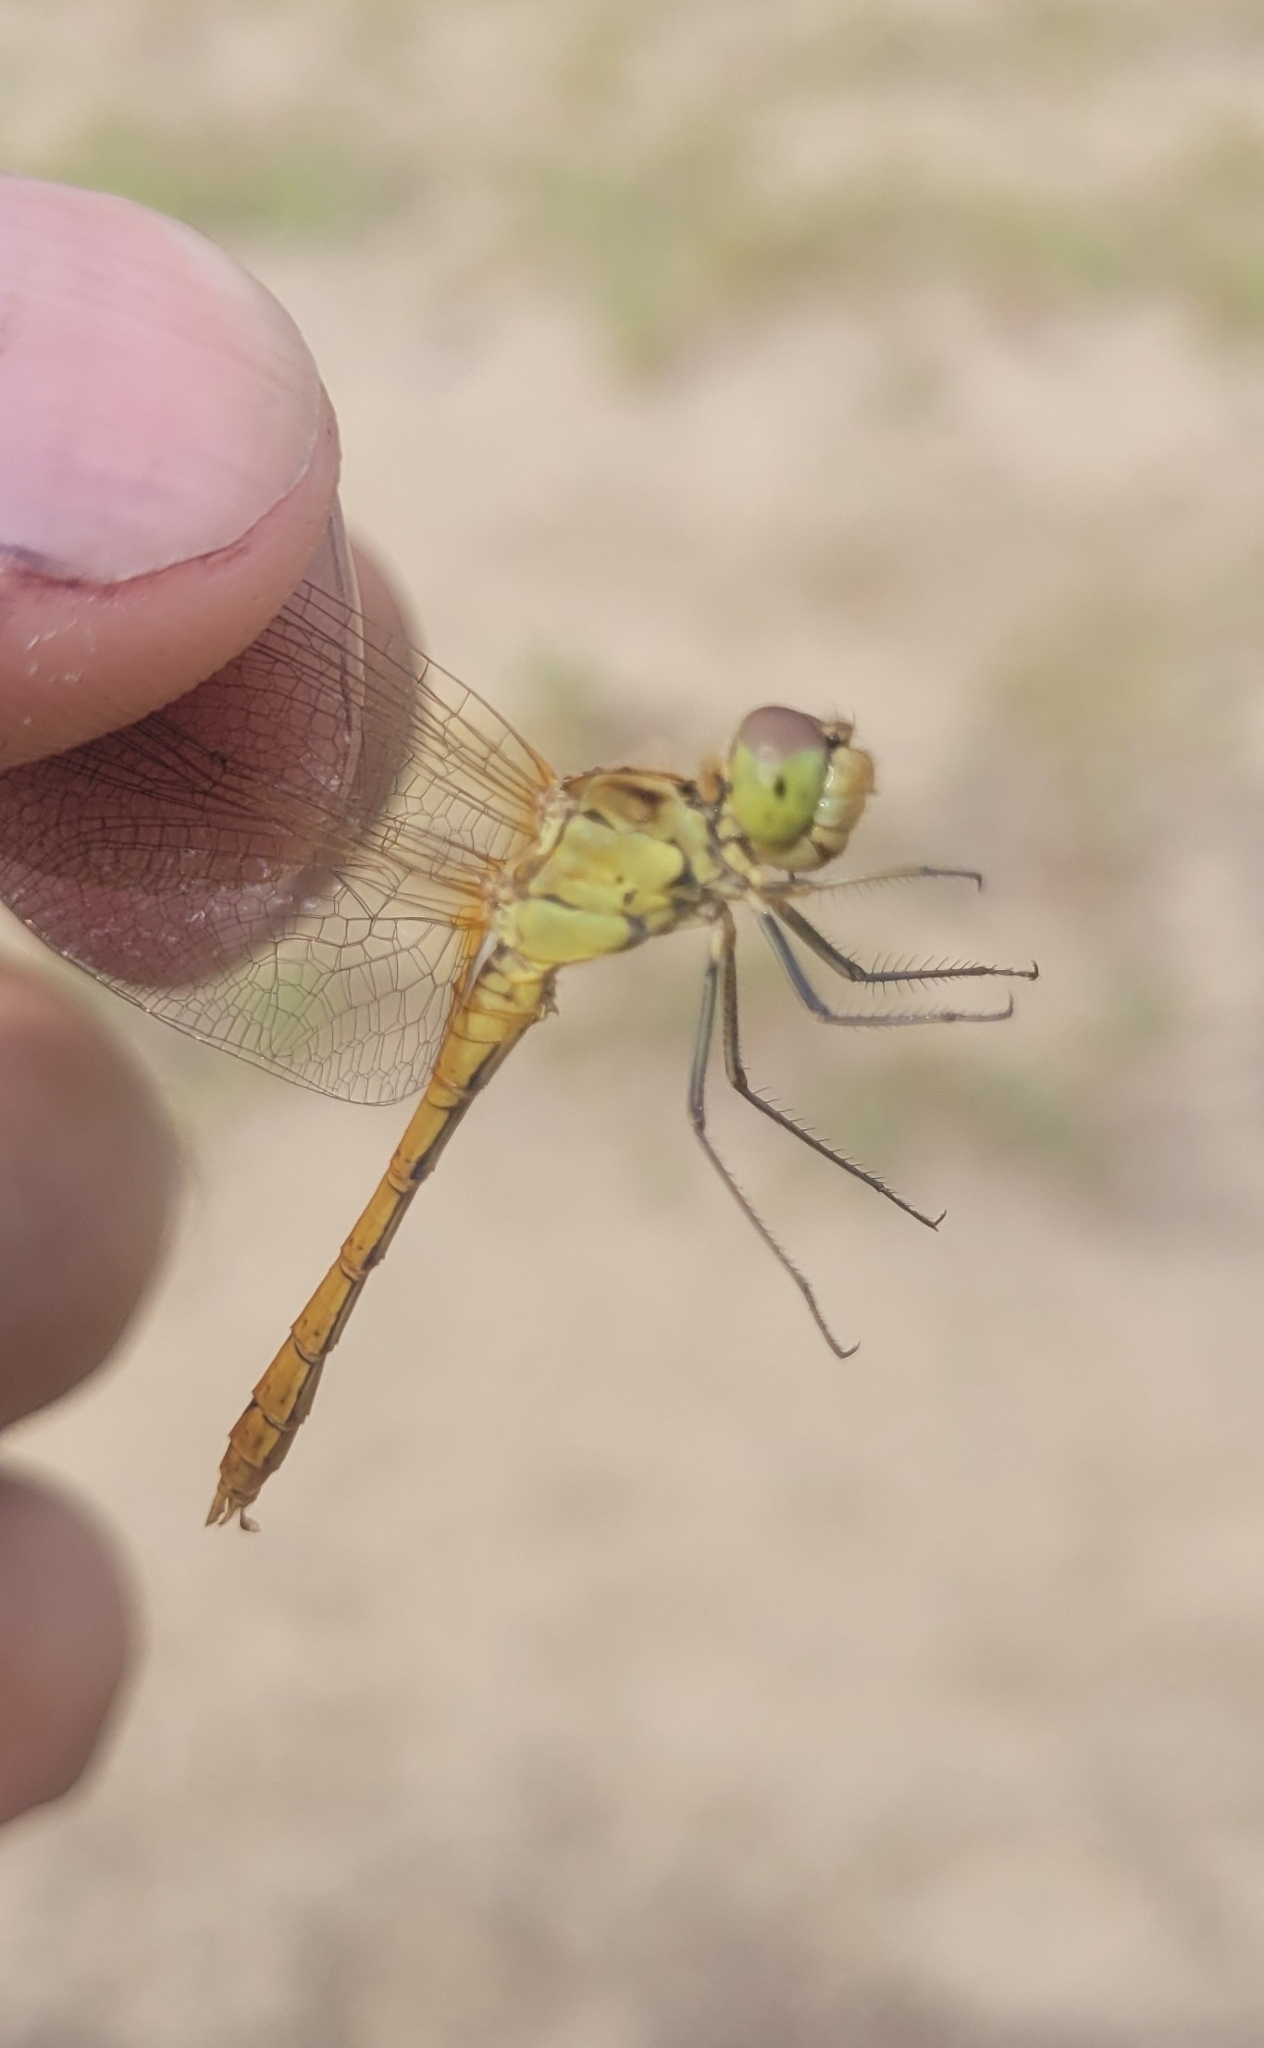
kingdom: Animalia
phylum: Arthropoda
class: Insecta
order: Odonata
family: Libellulidae
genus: Sympetrum
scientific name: Sympetrum meridionale
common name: Southern darter
